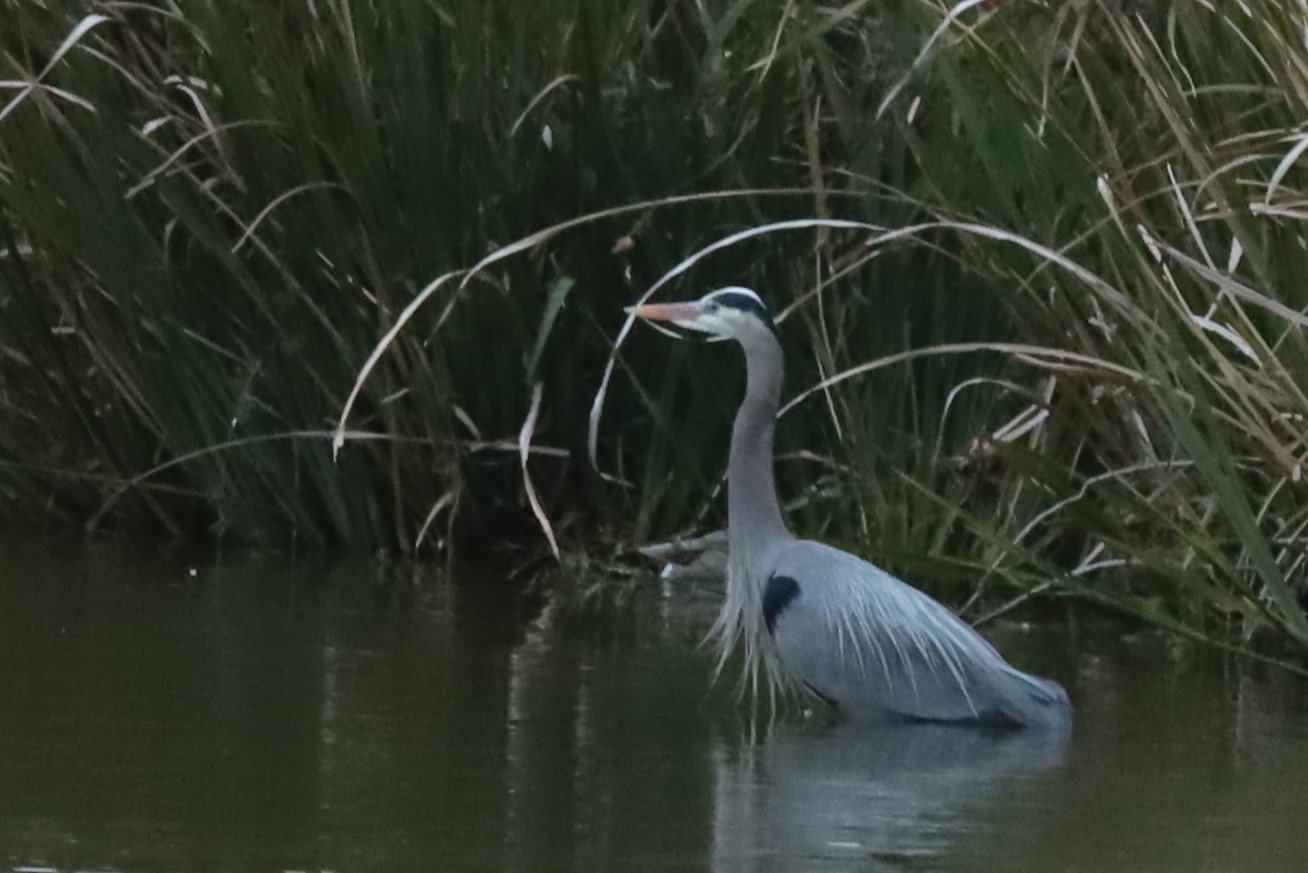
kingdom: Animalia
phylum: Chordata
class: Aves
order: Pelecaniformes
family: Ardeidae
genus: Ardea
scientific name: Ardea herodias
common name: Great blue heron
